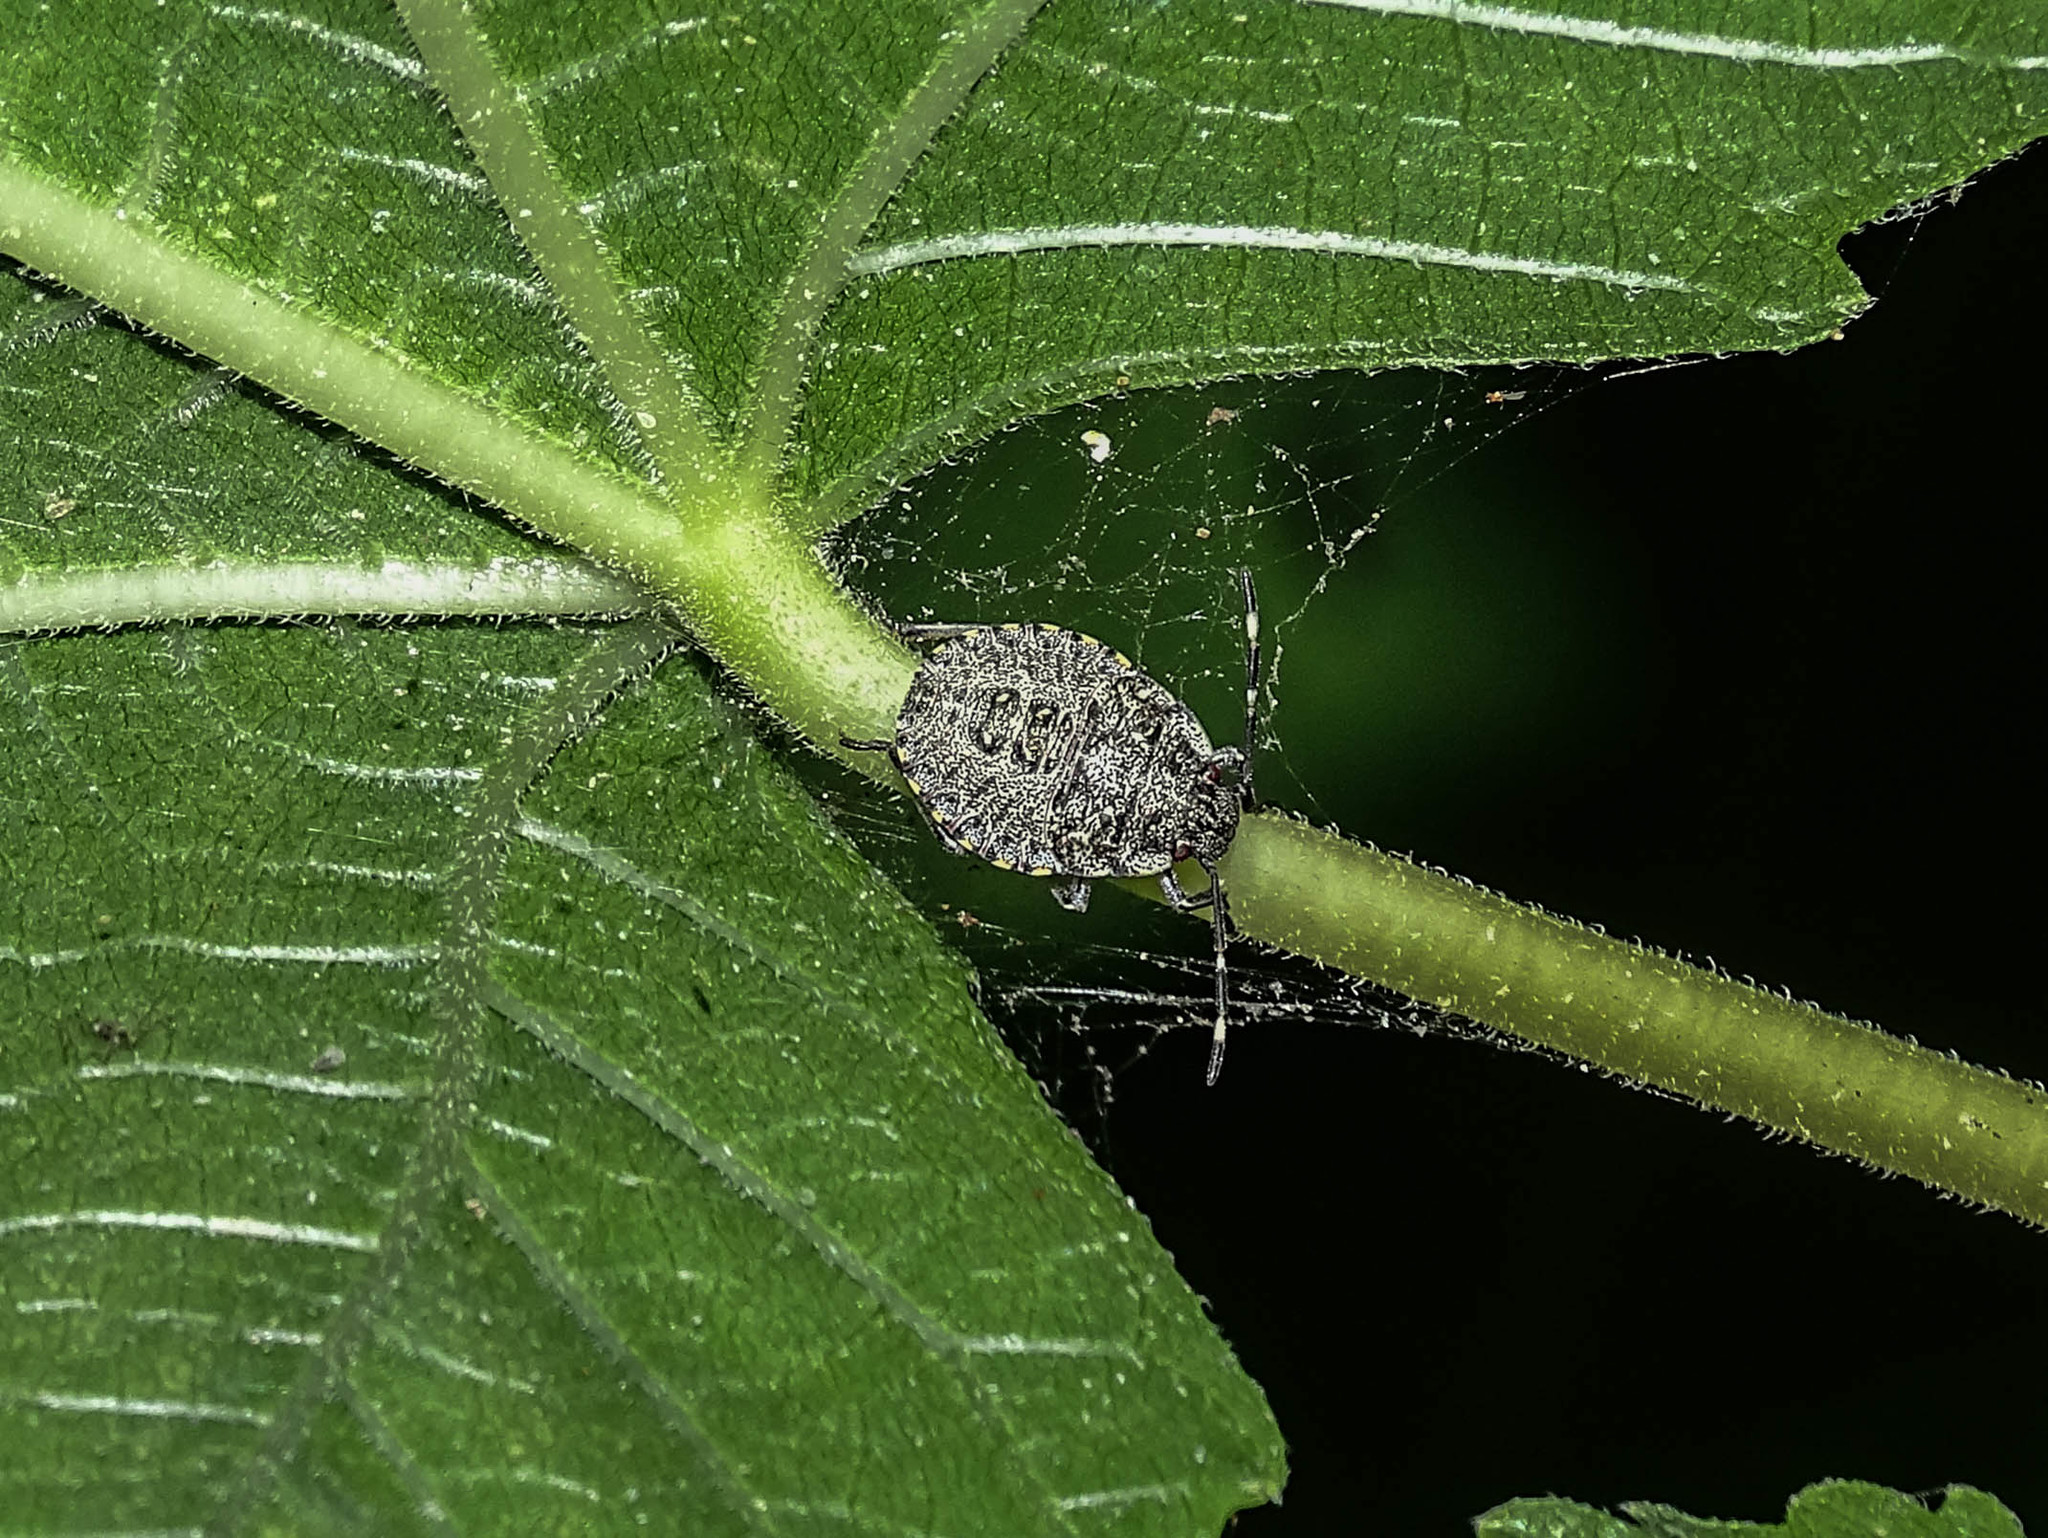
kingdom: Animalia
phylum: Arthropoda
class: Insecta
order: Hemiptera
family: Pentatomidae
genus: Rhaphigaster
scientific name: Rhaphigaster nebulosa
